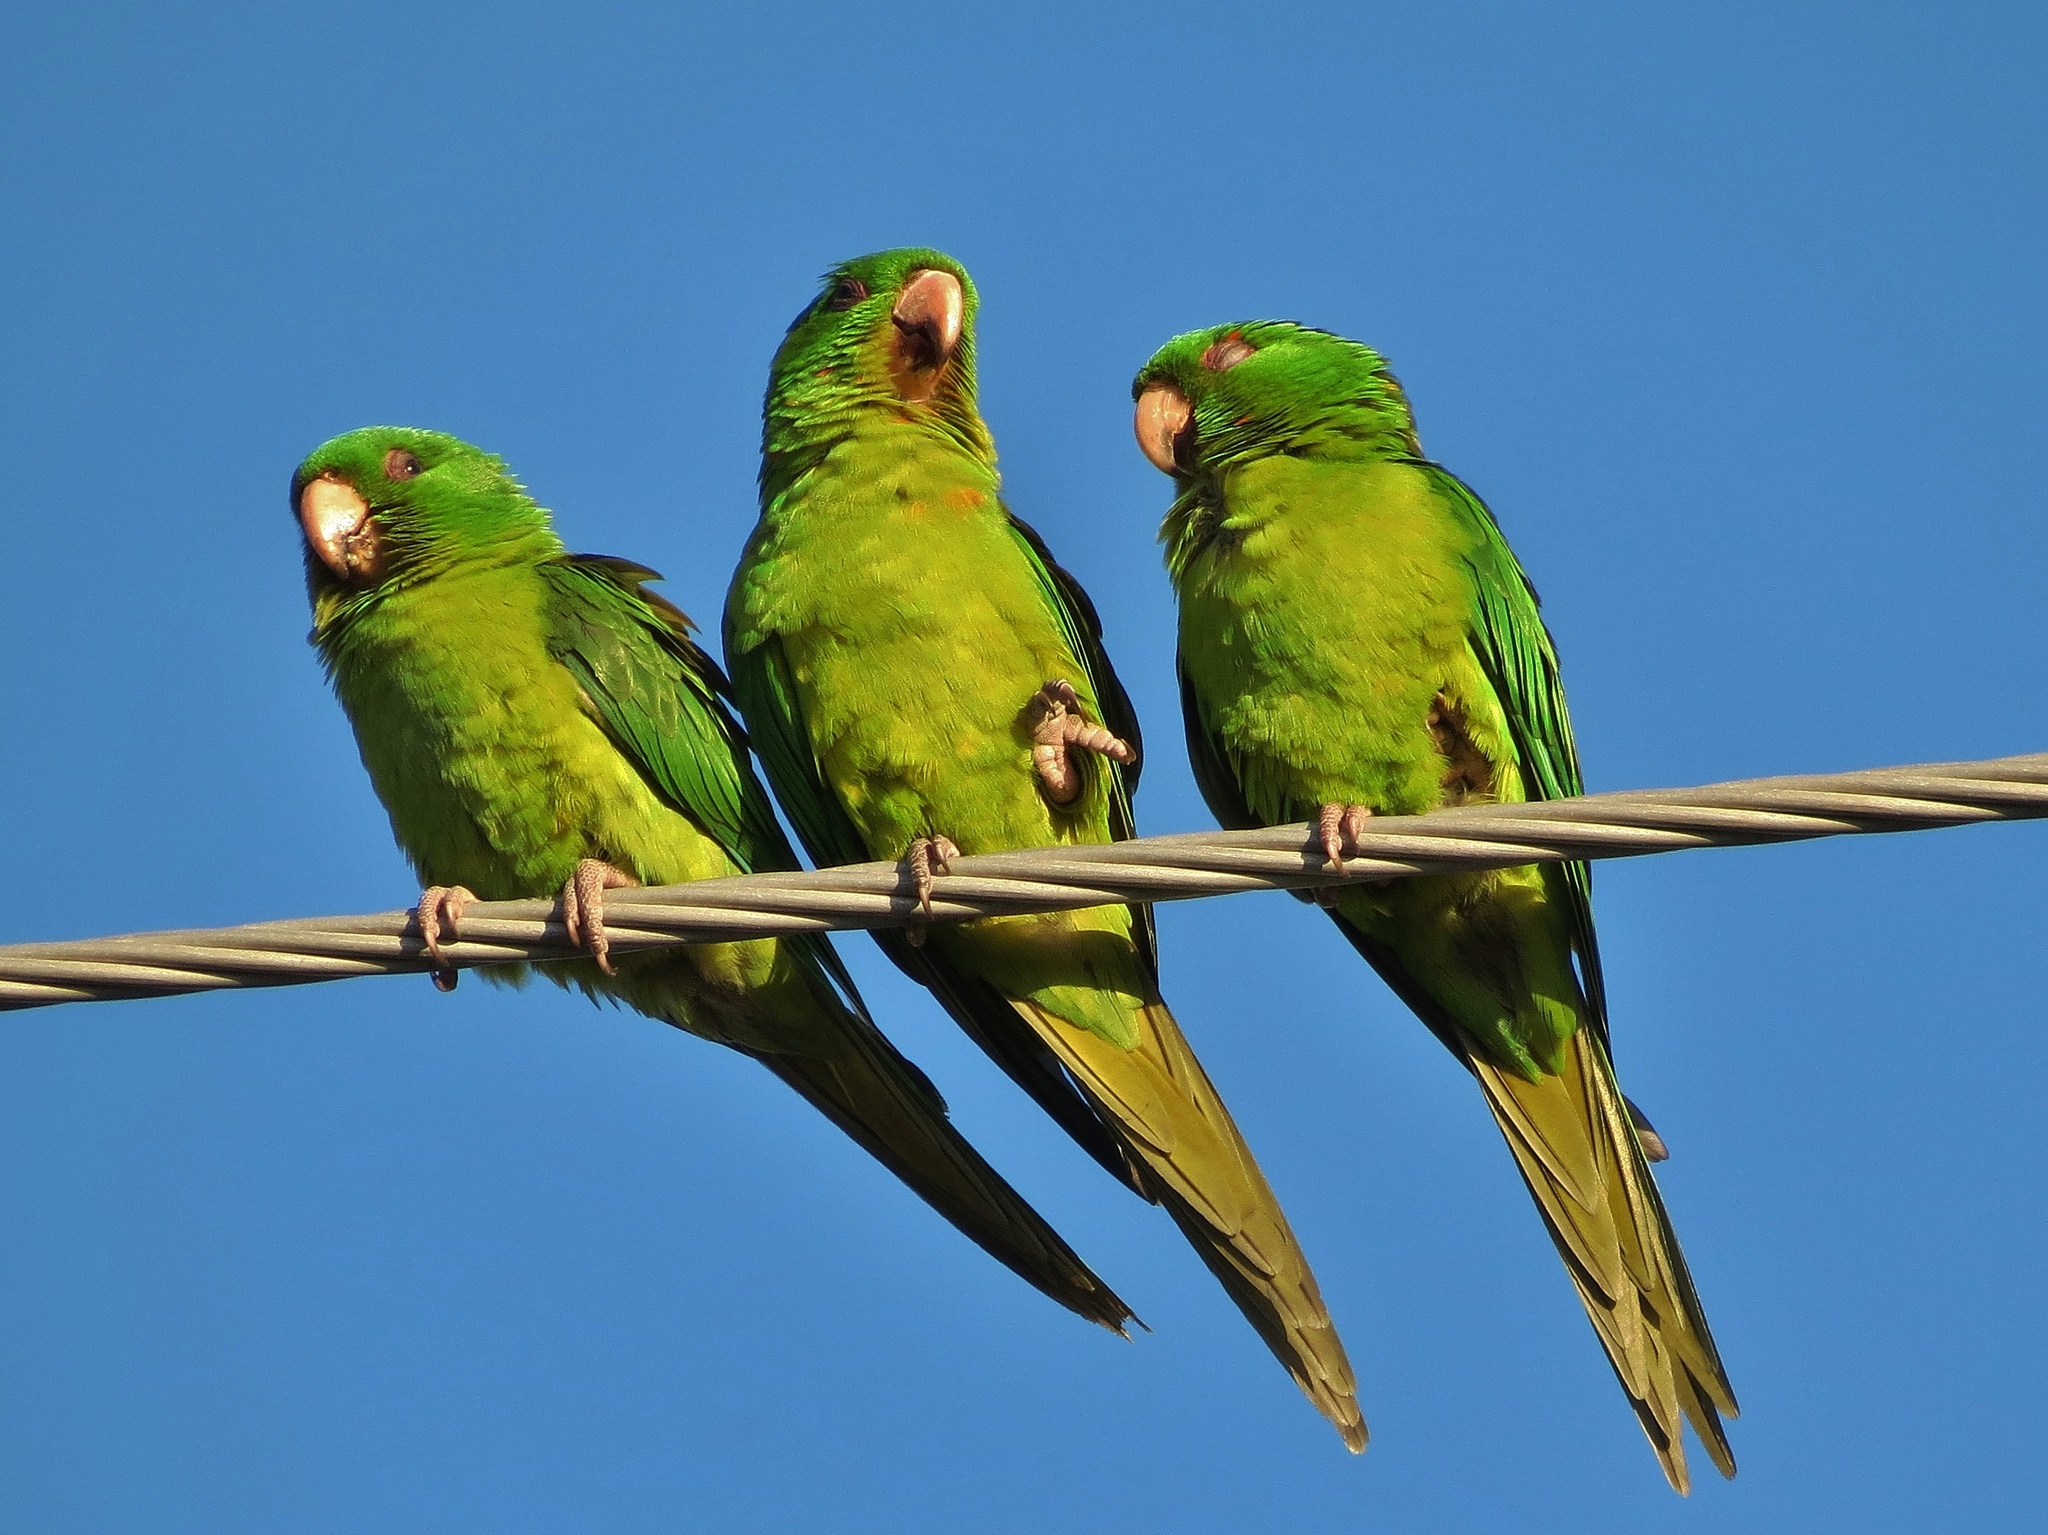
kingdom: Animalia
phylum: Chordata
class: Aves
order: Psittaciformes
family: Psittacidae
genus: Aratinga
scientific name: Aratinga holochlora
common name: Green parakeet
